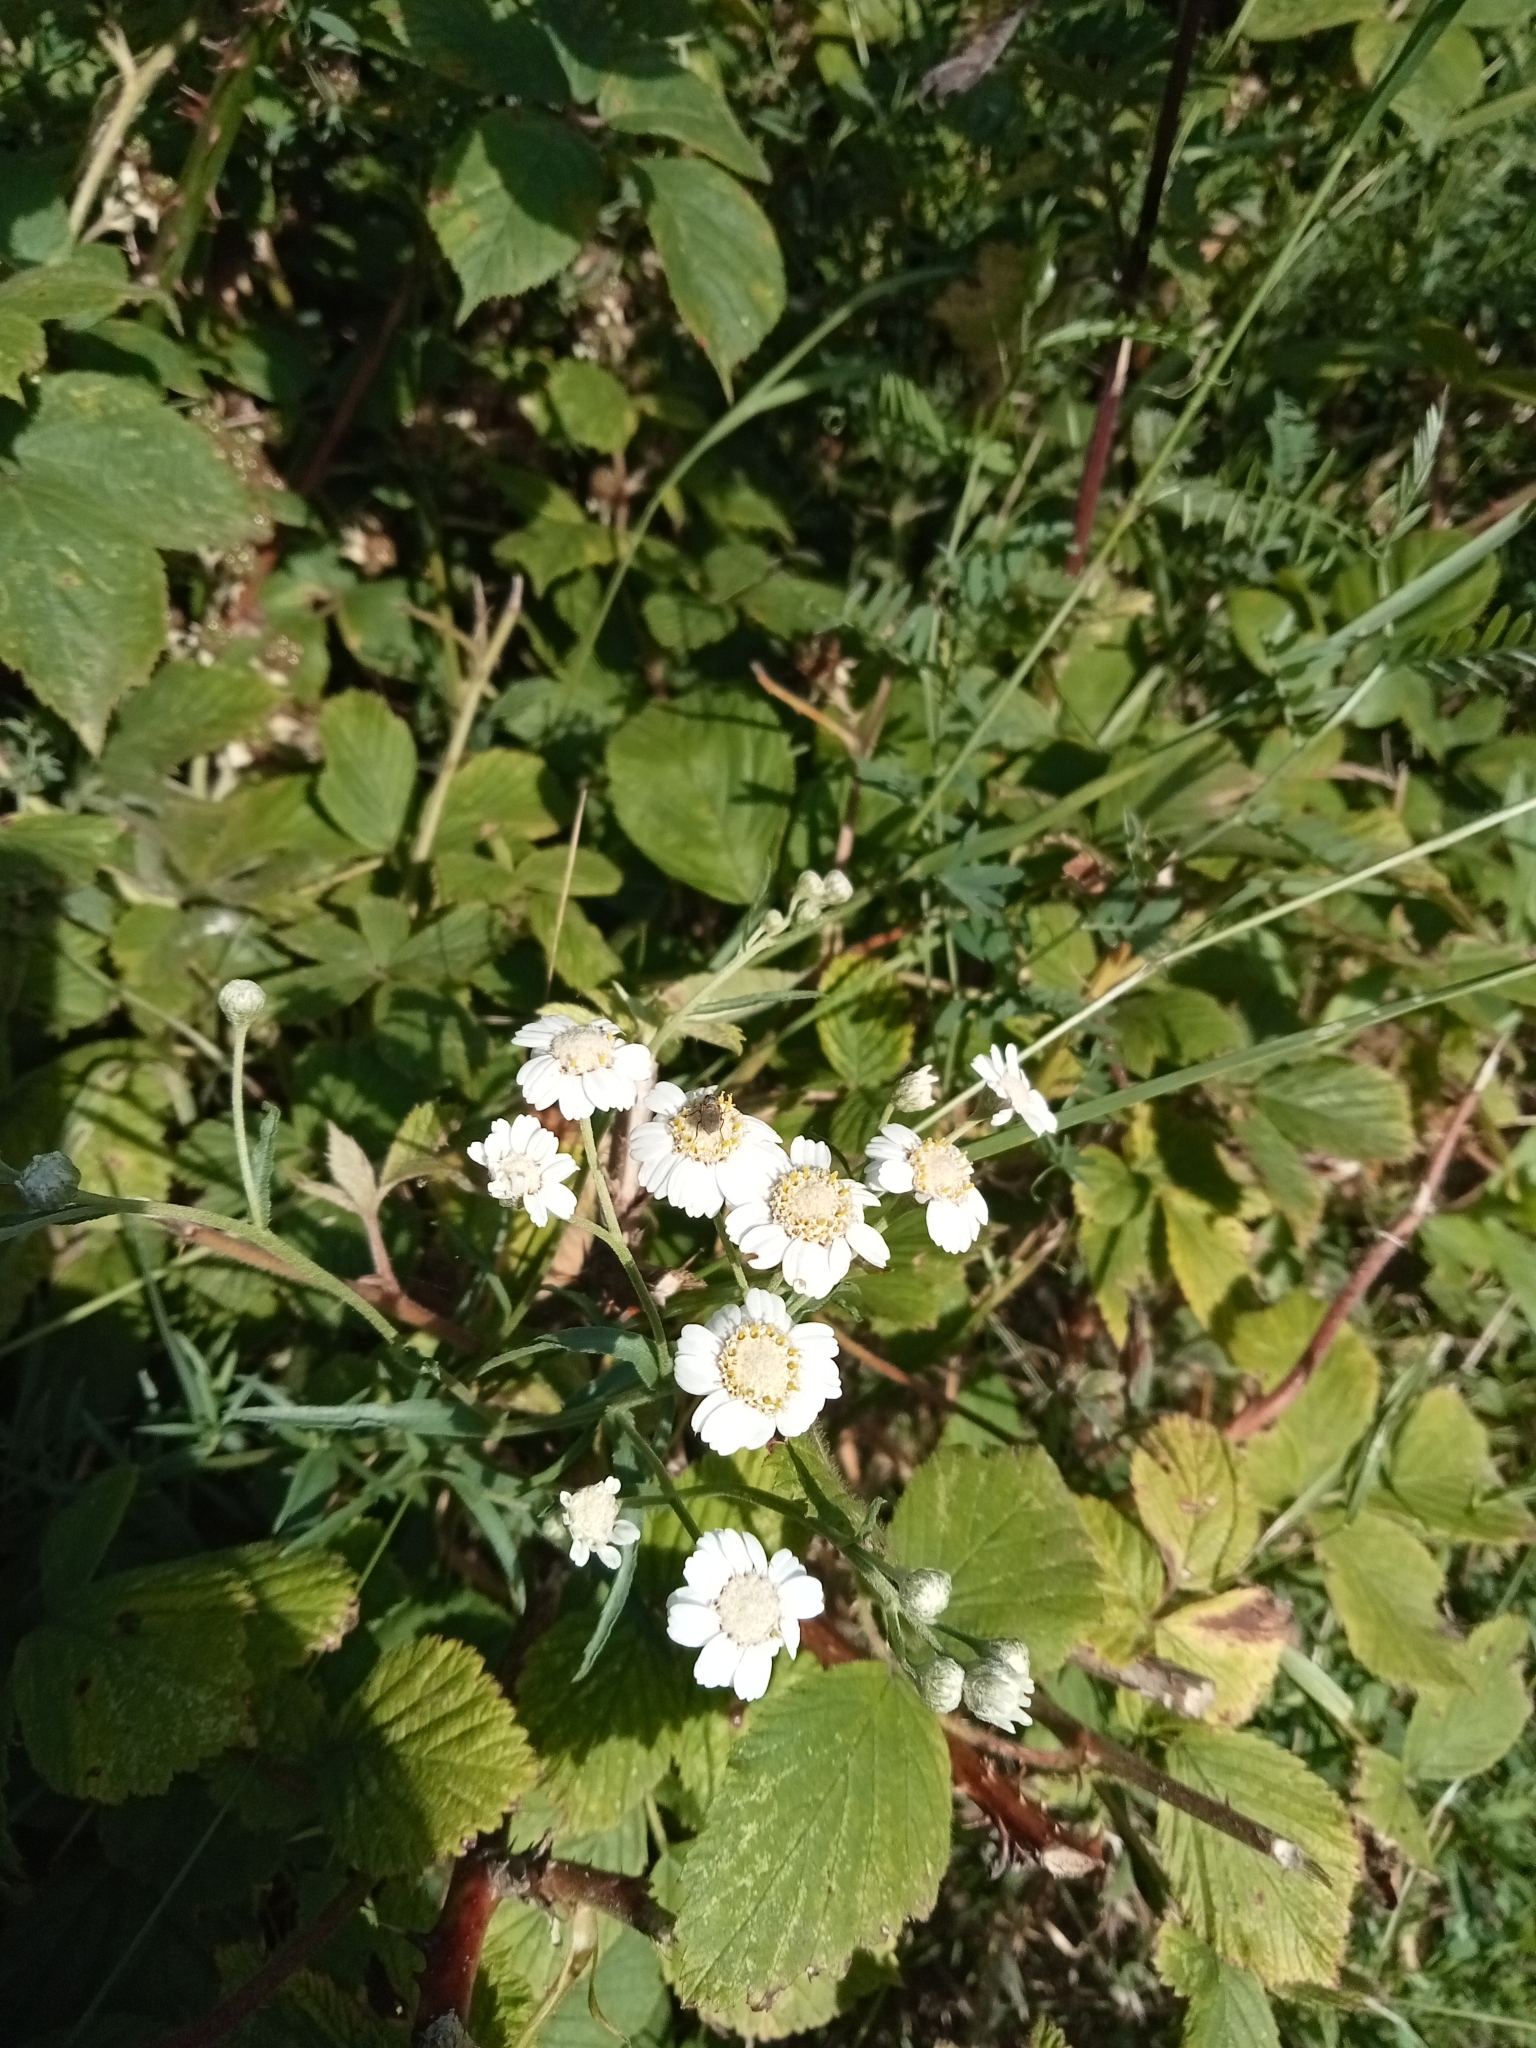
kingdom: Plantae
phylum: Tracheophyta
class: Magnoliopsida
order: Asterales
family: Asteraceae
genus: Achillea
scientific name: Achillea ptarmica
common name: Sneezeweed
